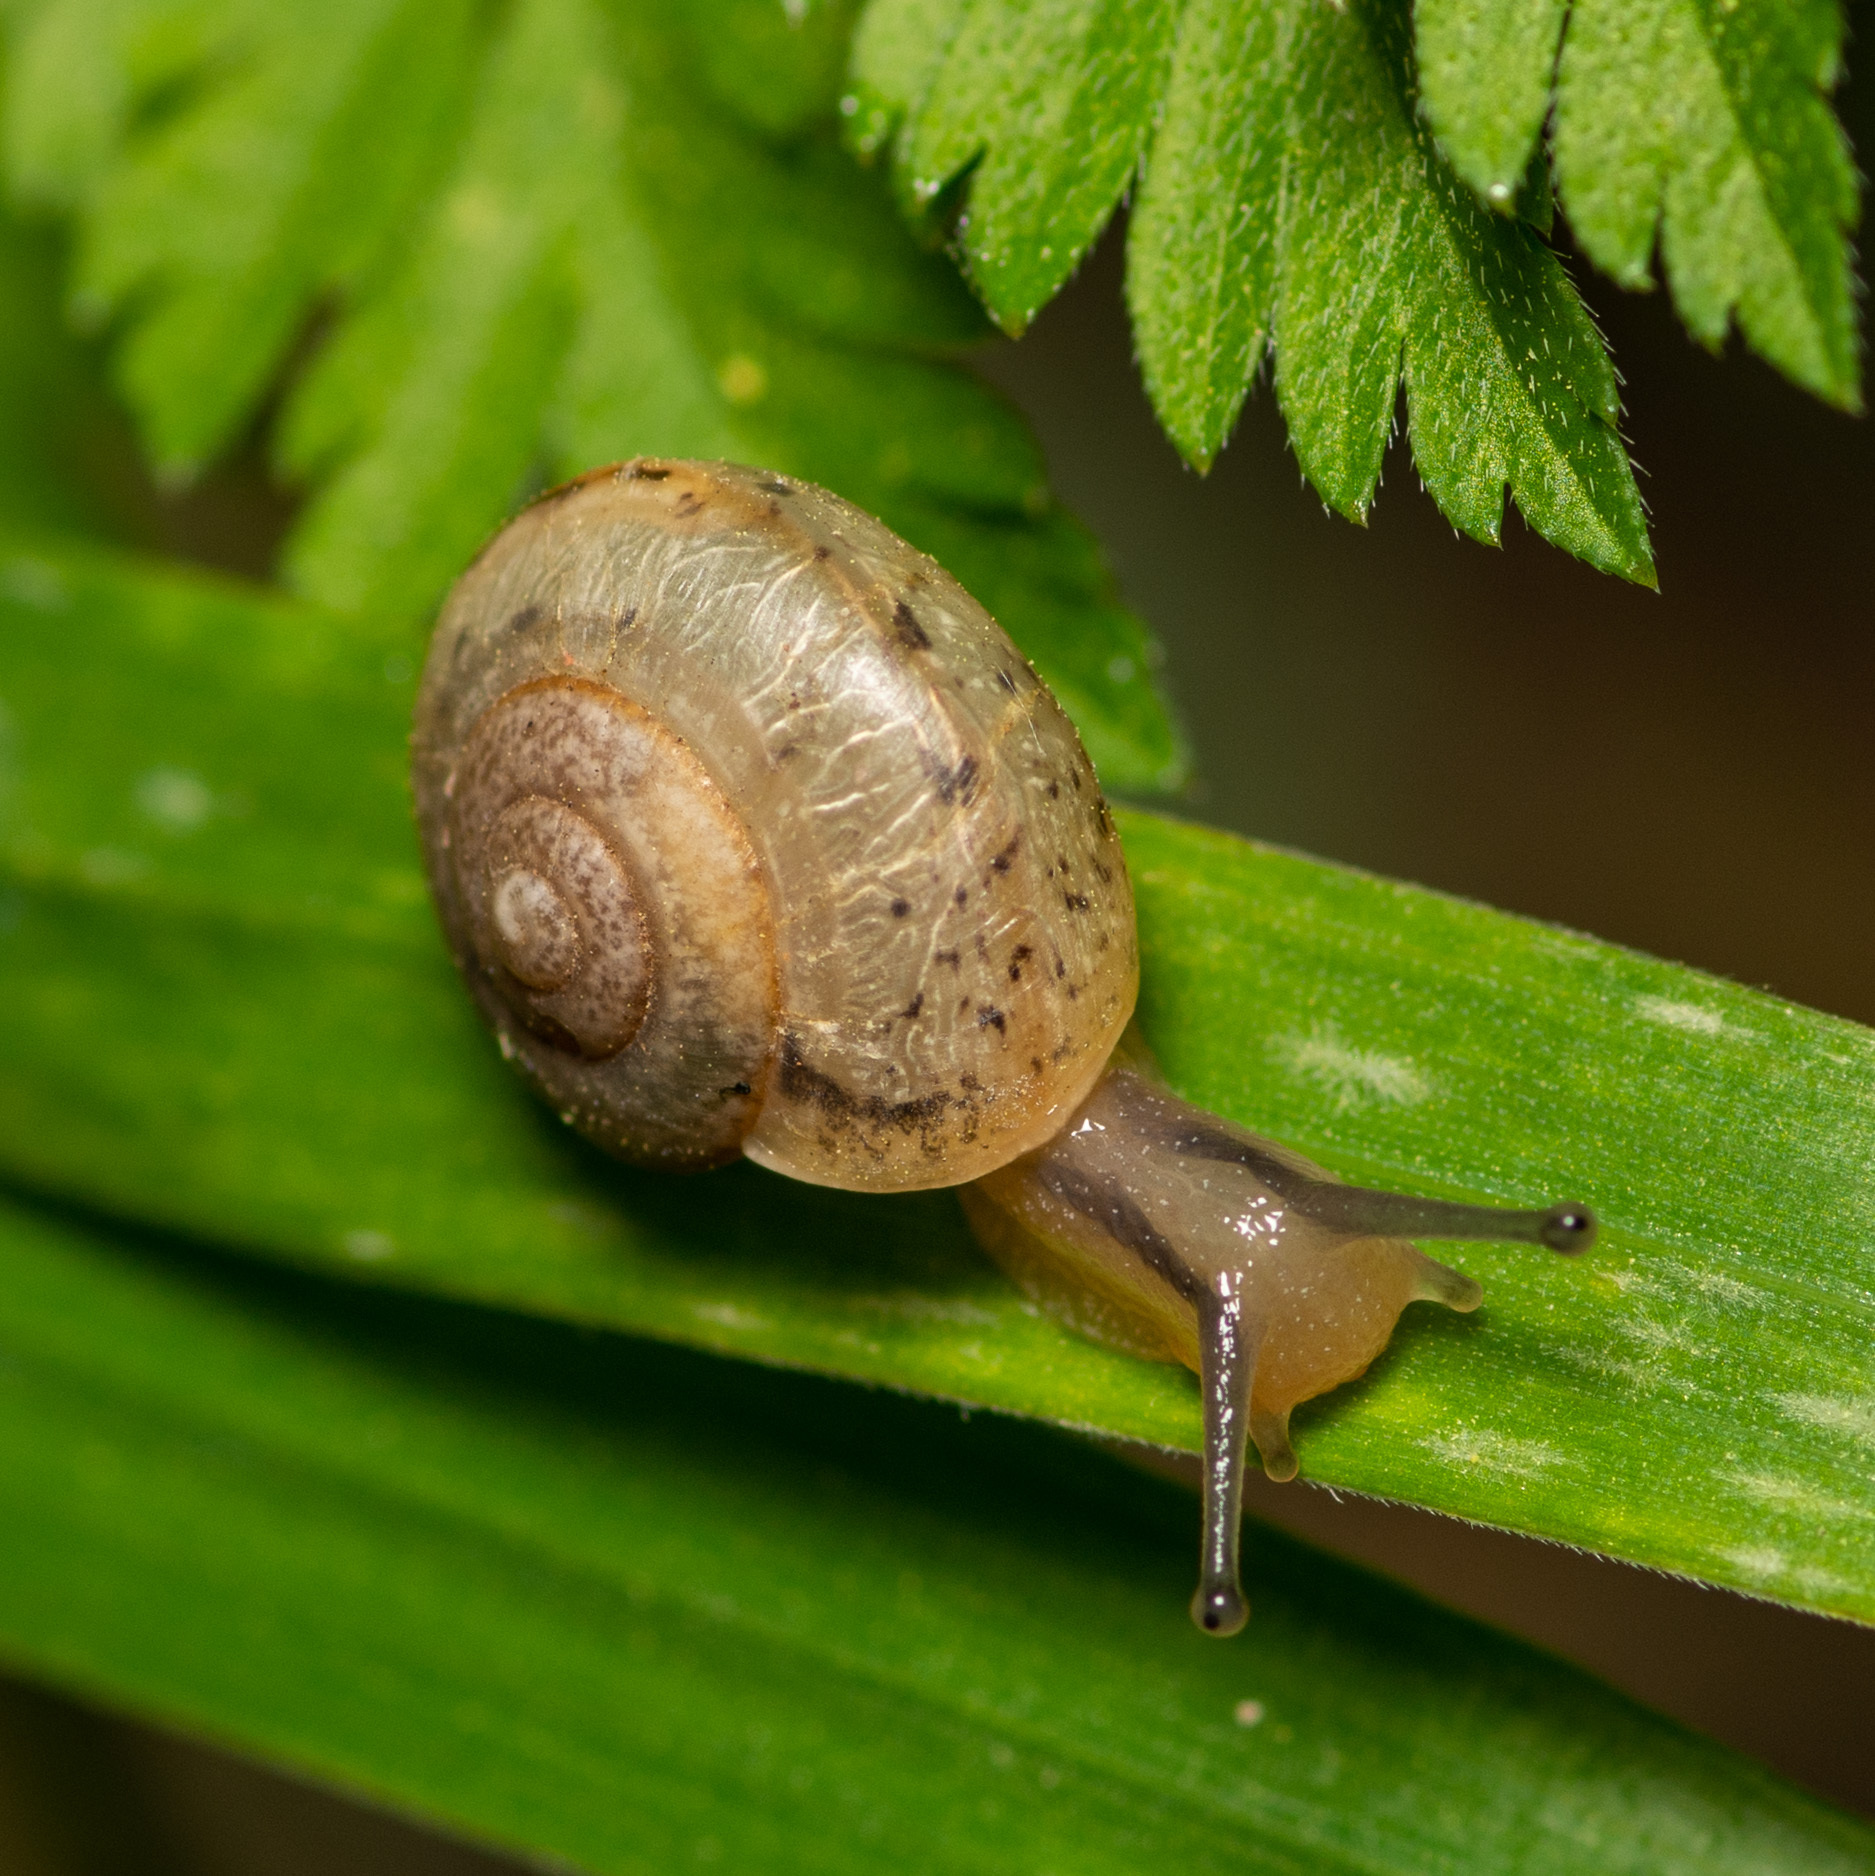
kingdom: Animalia
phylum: Mollusca
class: Gastropoda
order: Stylommatophora
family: Camaenidae
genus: Bradybaena
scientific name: Bradybaena similaris
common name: Asian trampsnail
